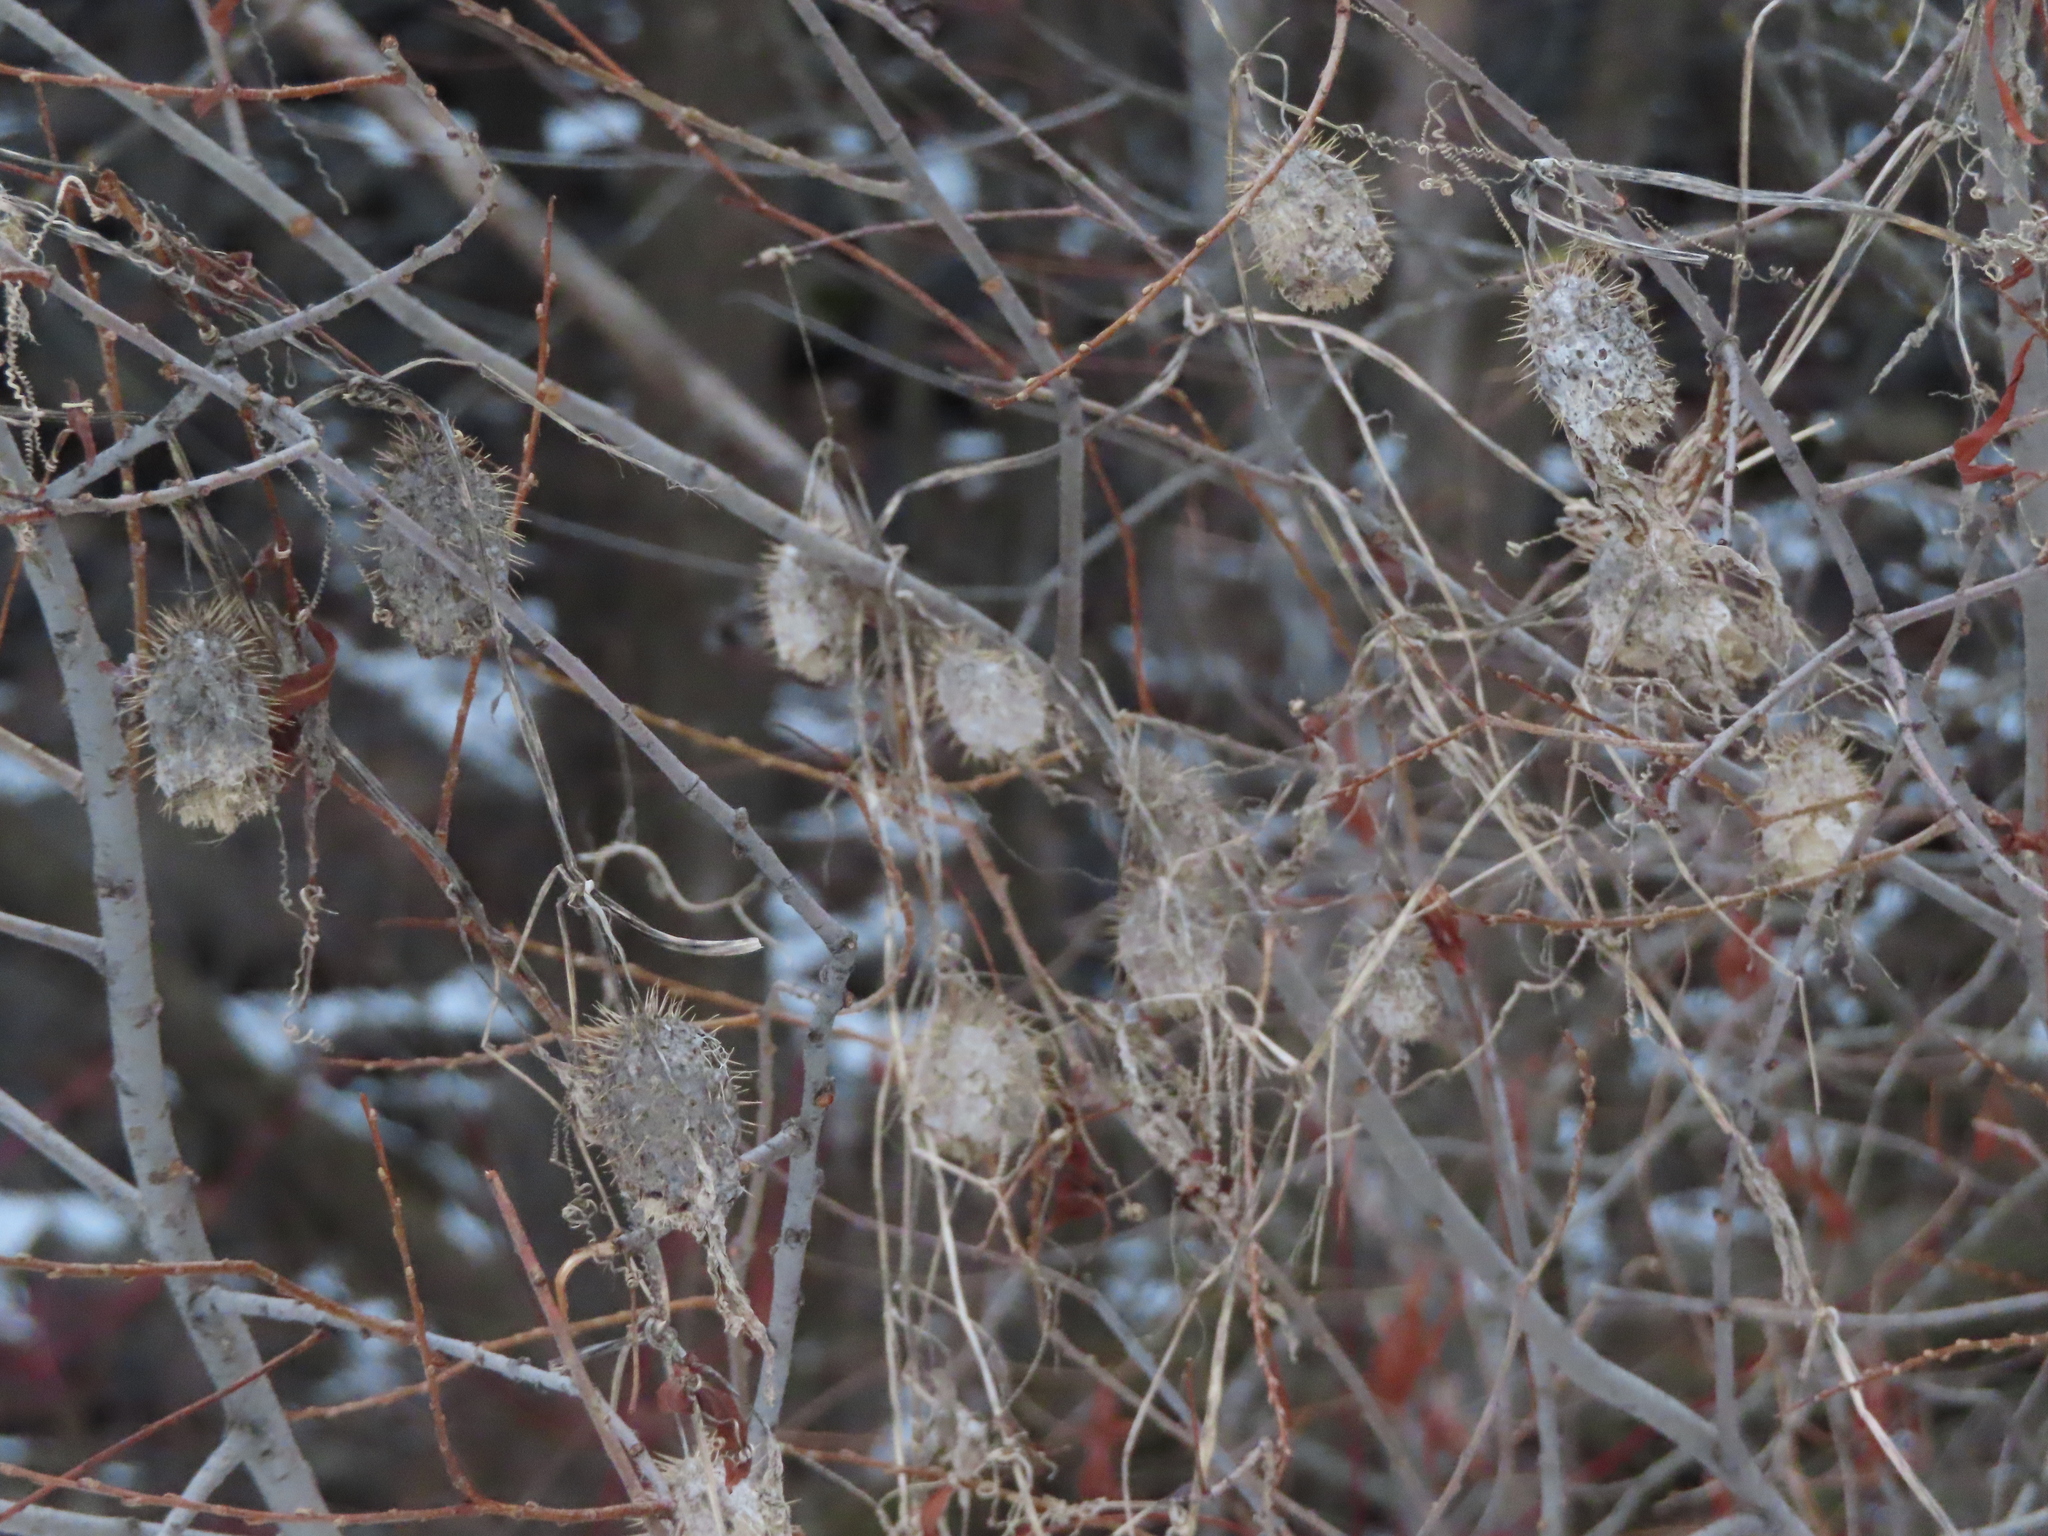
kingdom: Plantae
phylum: Tracheophyta
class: Magnoliopsida
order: Cucurbitales
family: Cucurbitaceae
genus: Echinocystis
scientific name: Echinocystis lobata
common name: Wild cucumber
